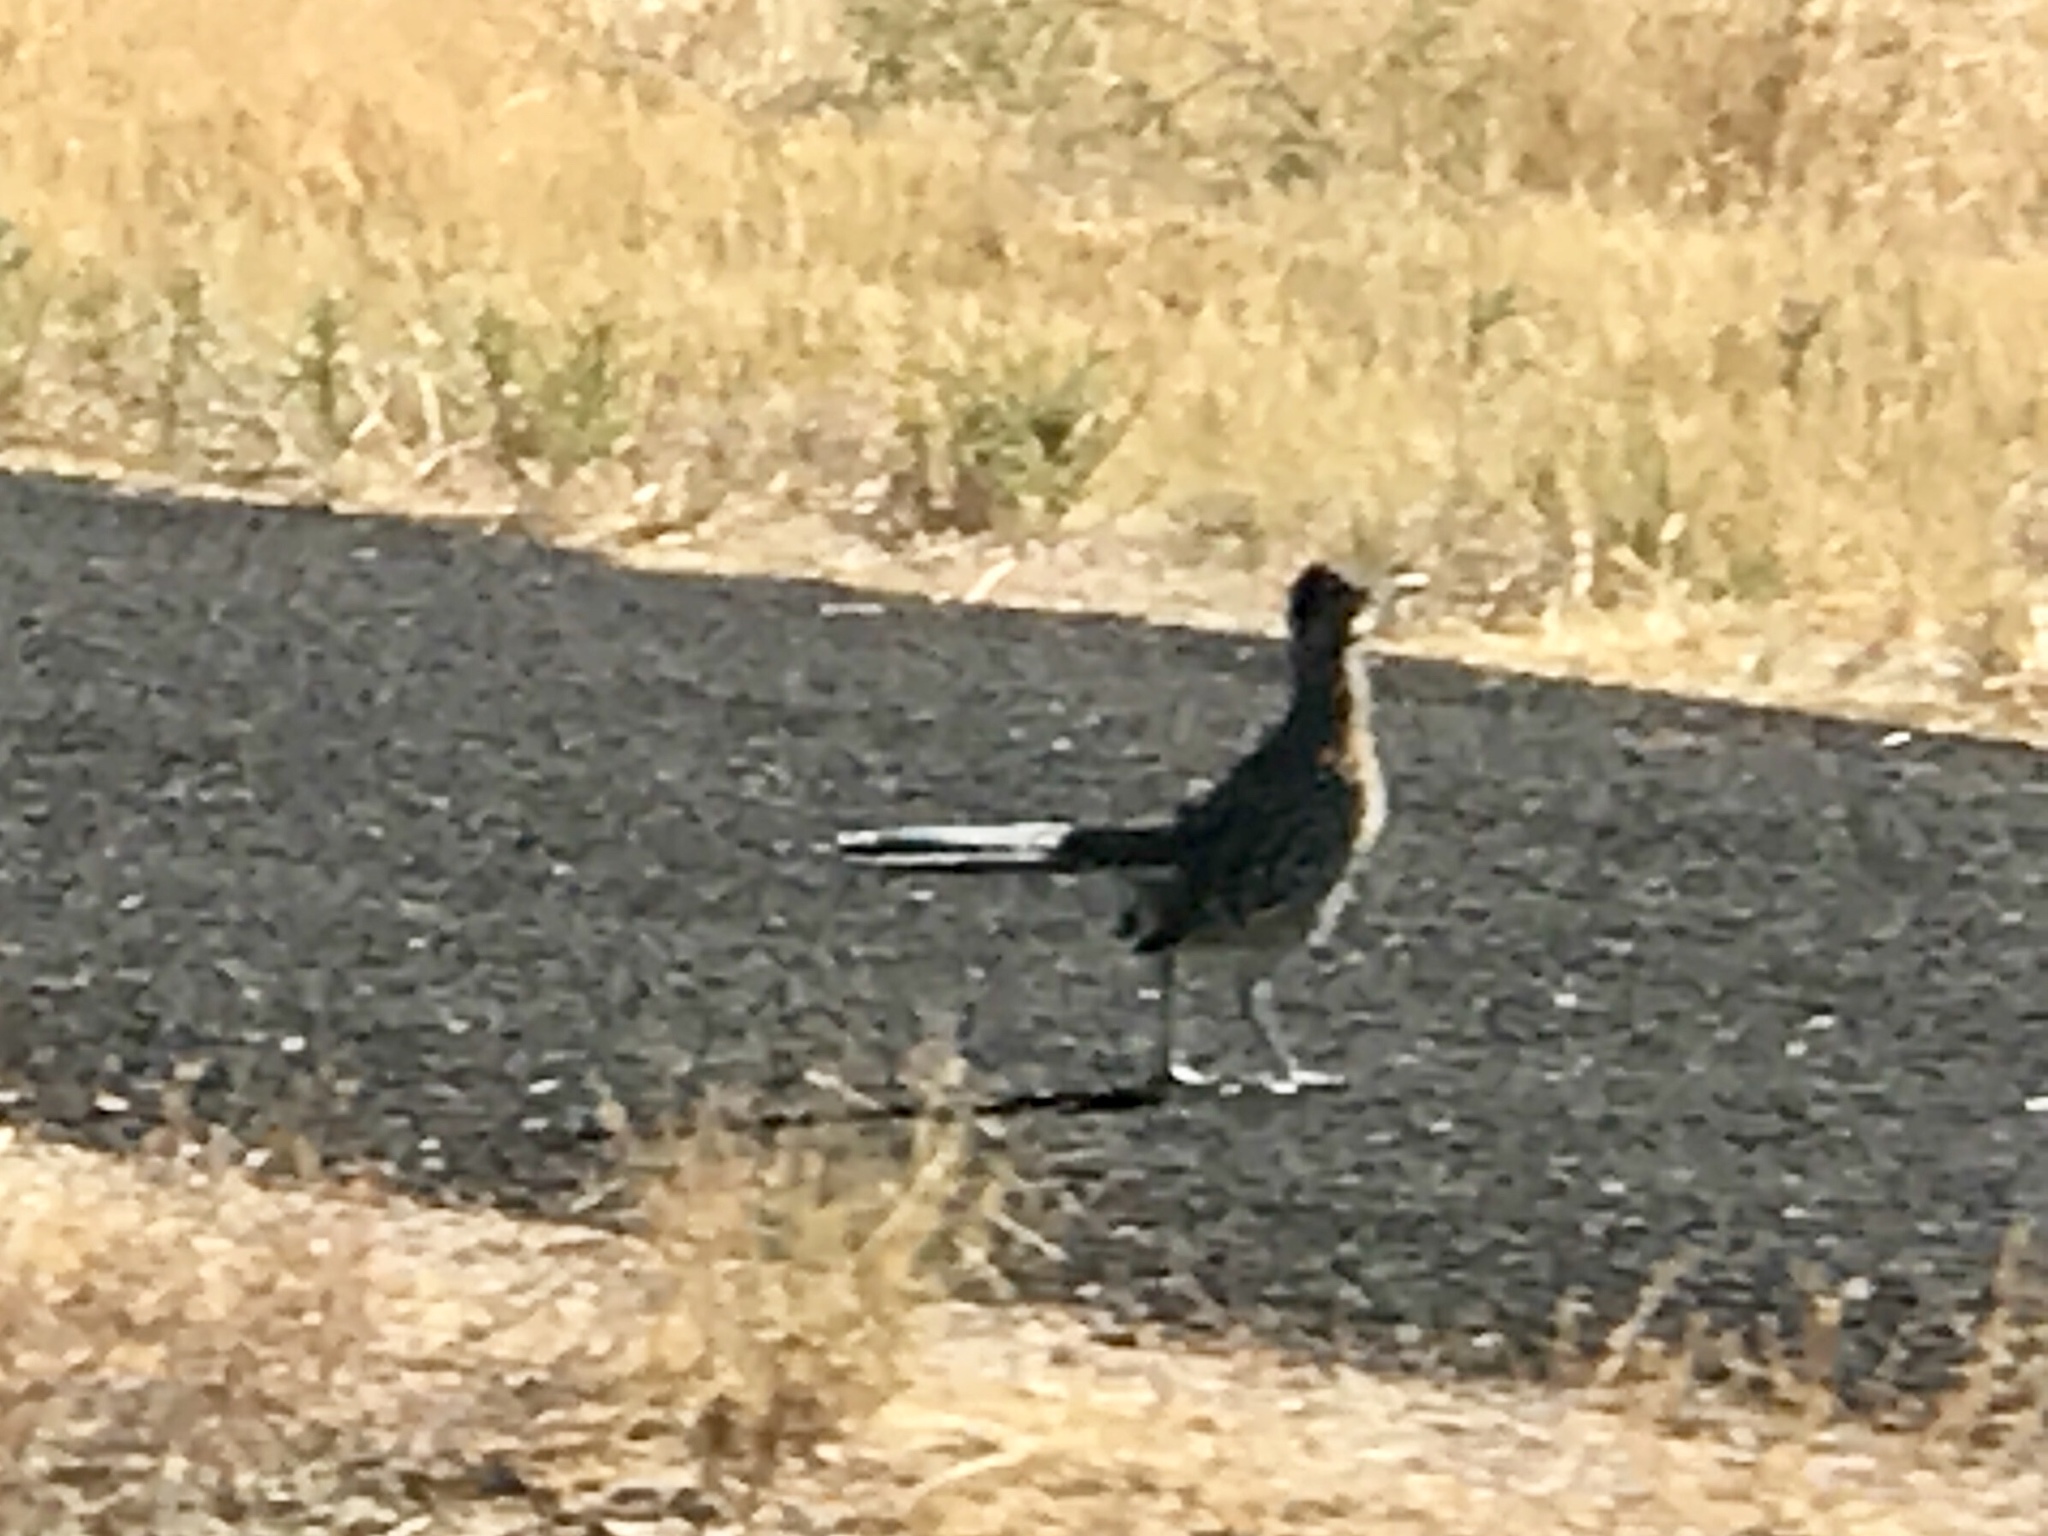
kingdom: Animalia
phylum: Chordata
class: Aves
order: Cuculiformes
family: Cuculidae
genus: Geococcyx
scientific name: Geococcyx californianus
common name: Greater roadrunner
